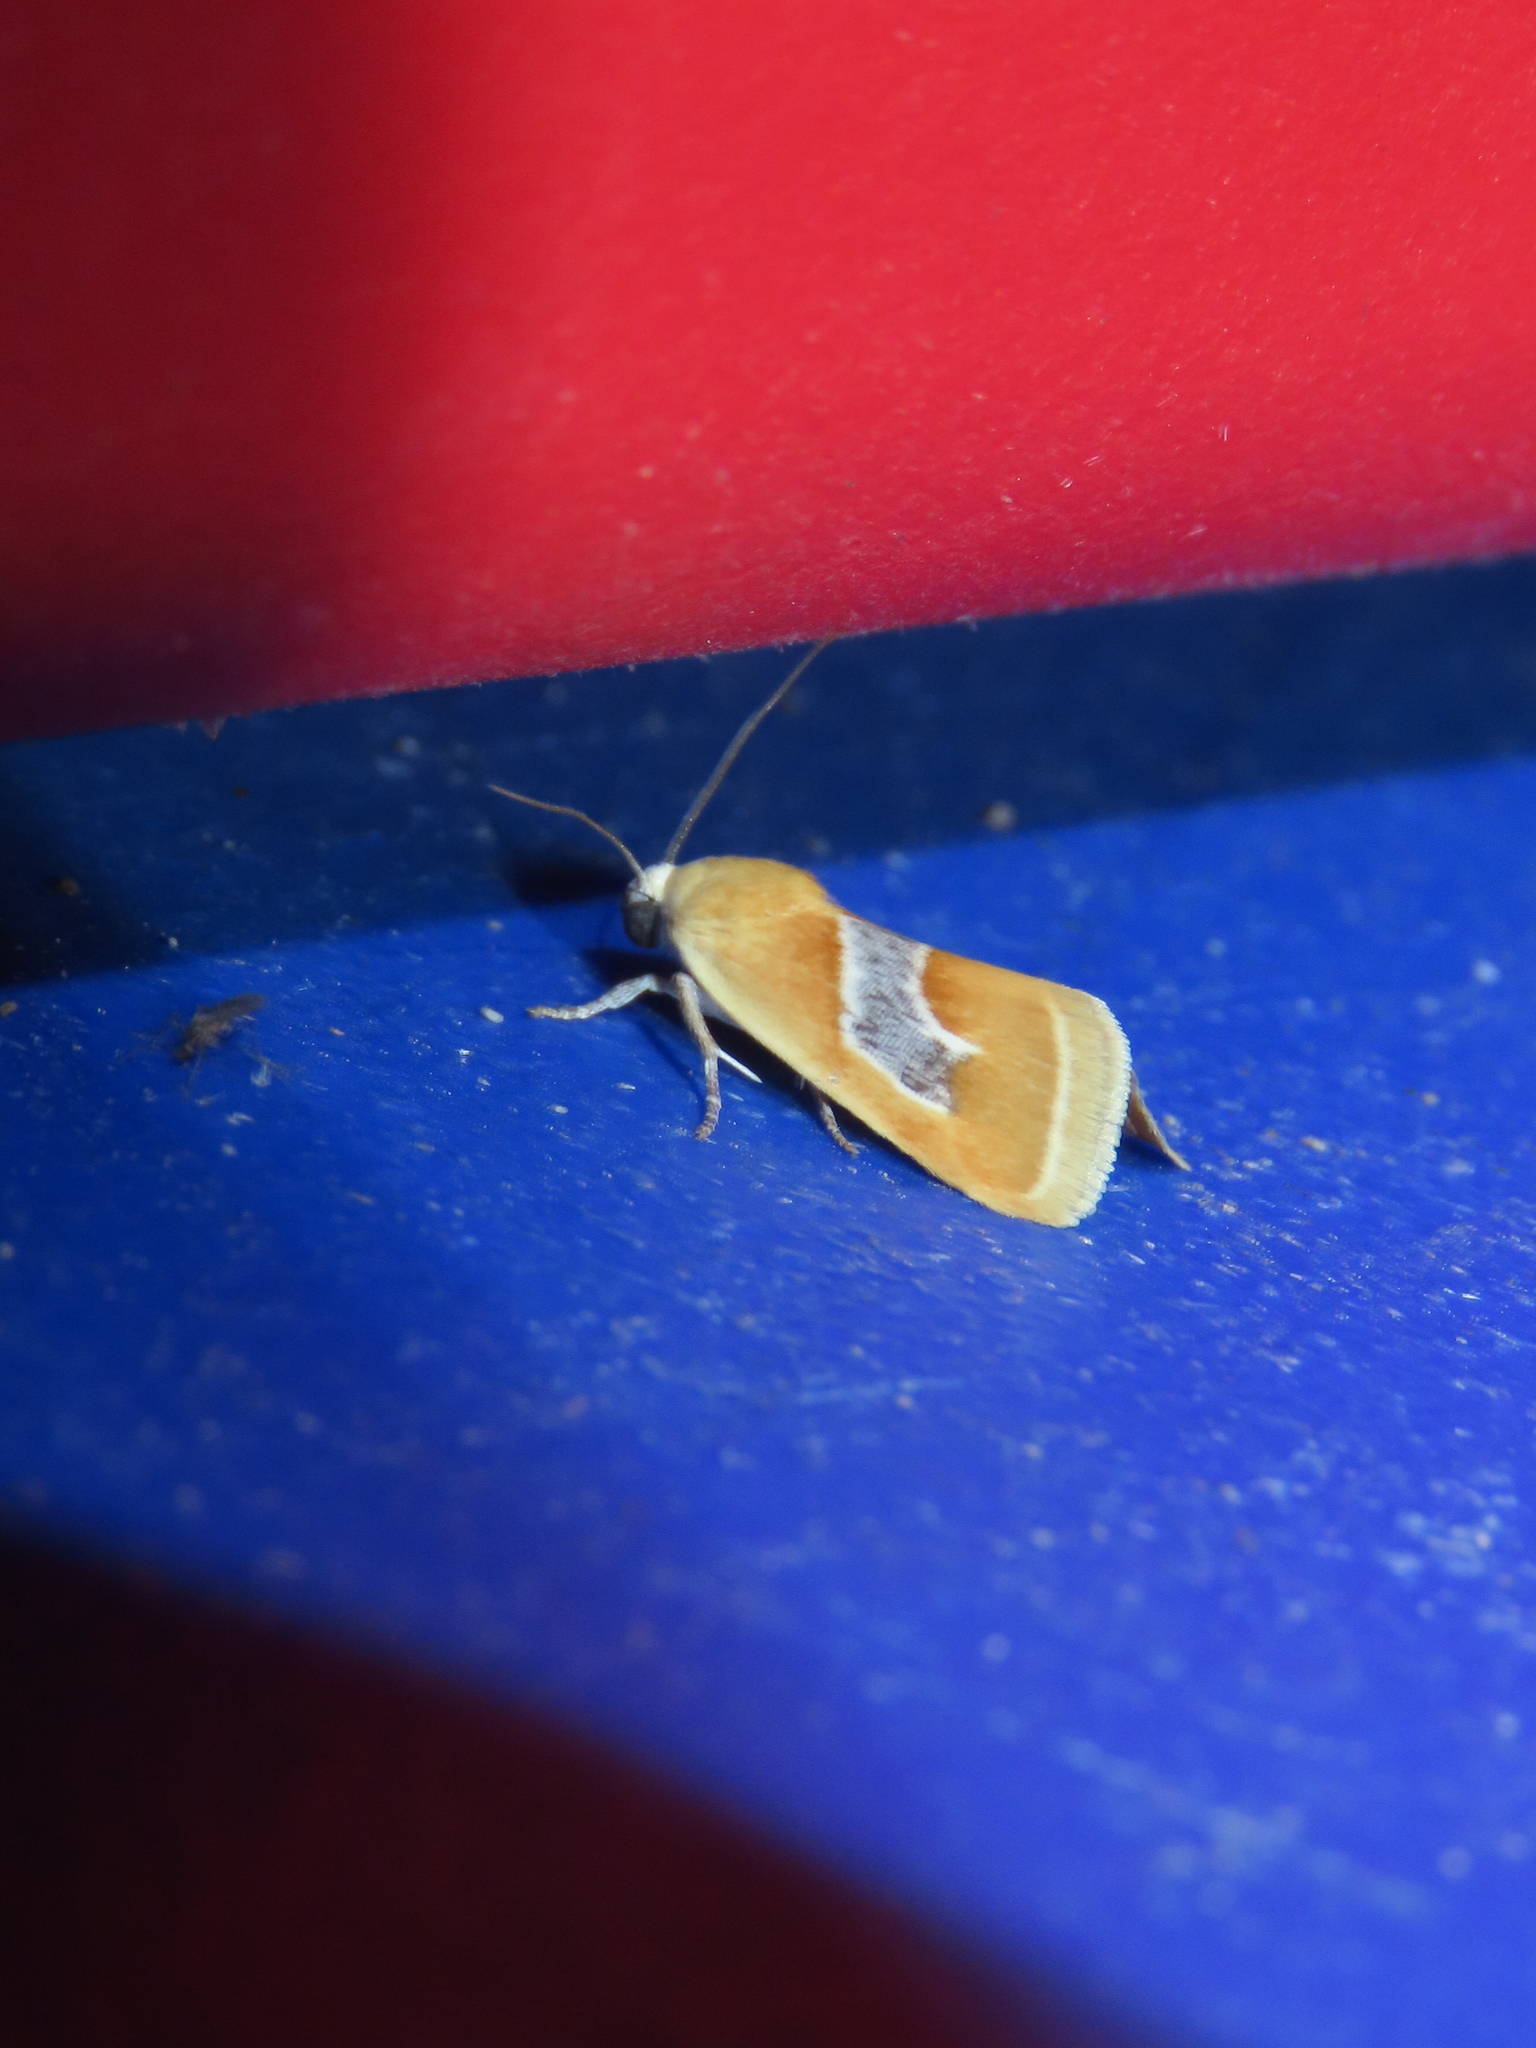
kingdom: Animalia
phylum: Arthropoda
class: Insecta
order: Lepidoptera
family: Noctuidae
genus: Ponometia
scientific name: Ponometia venustula
